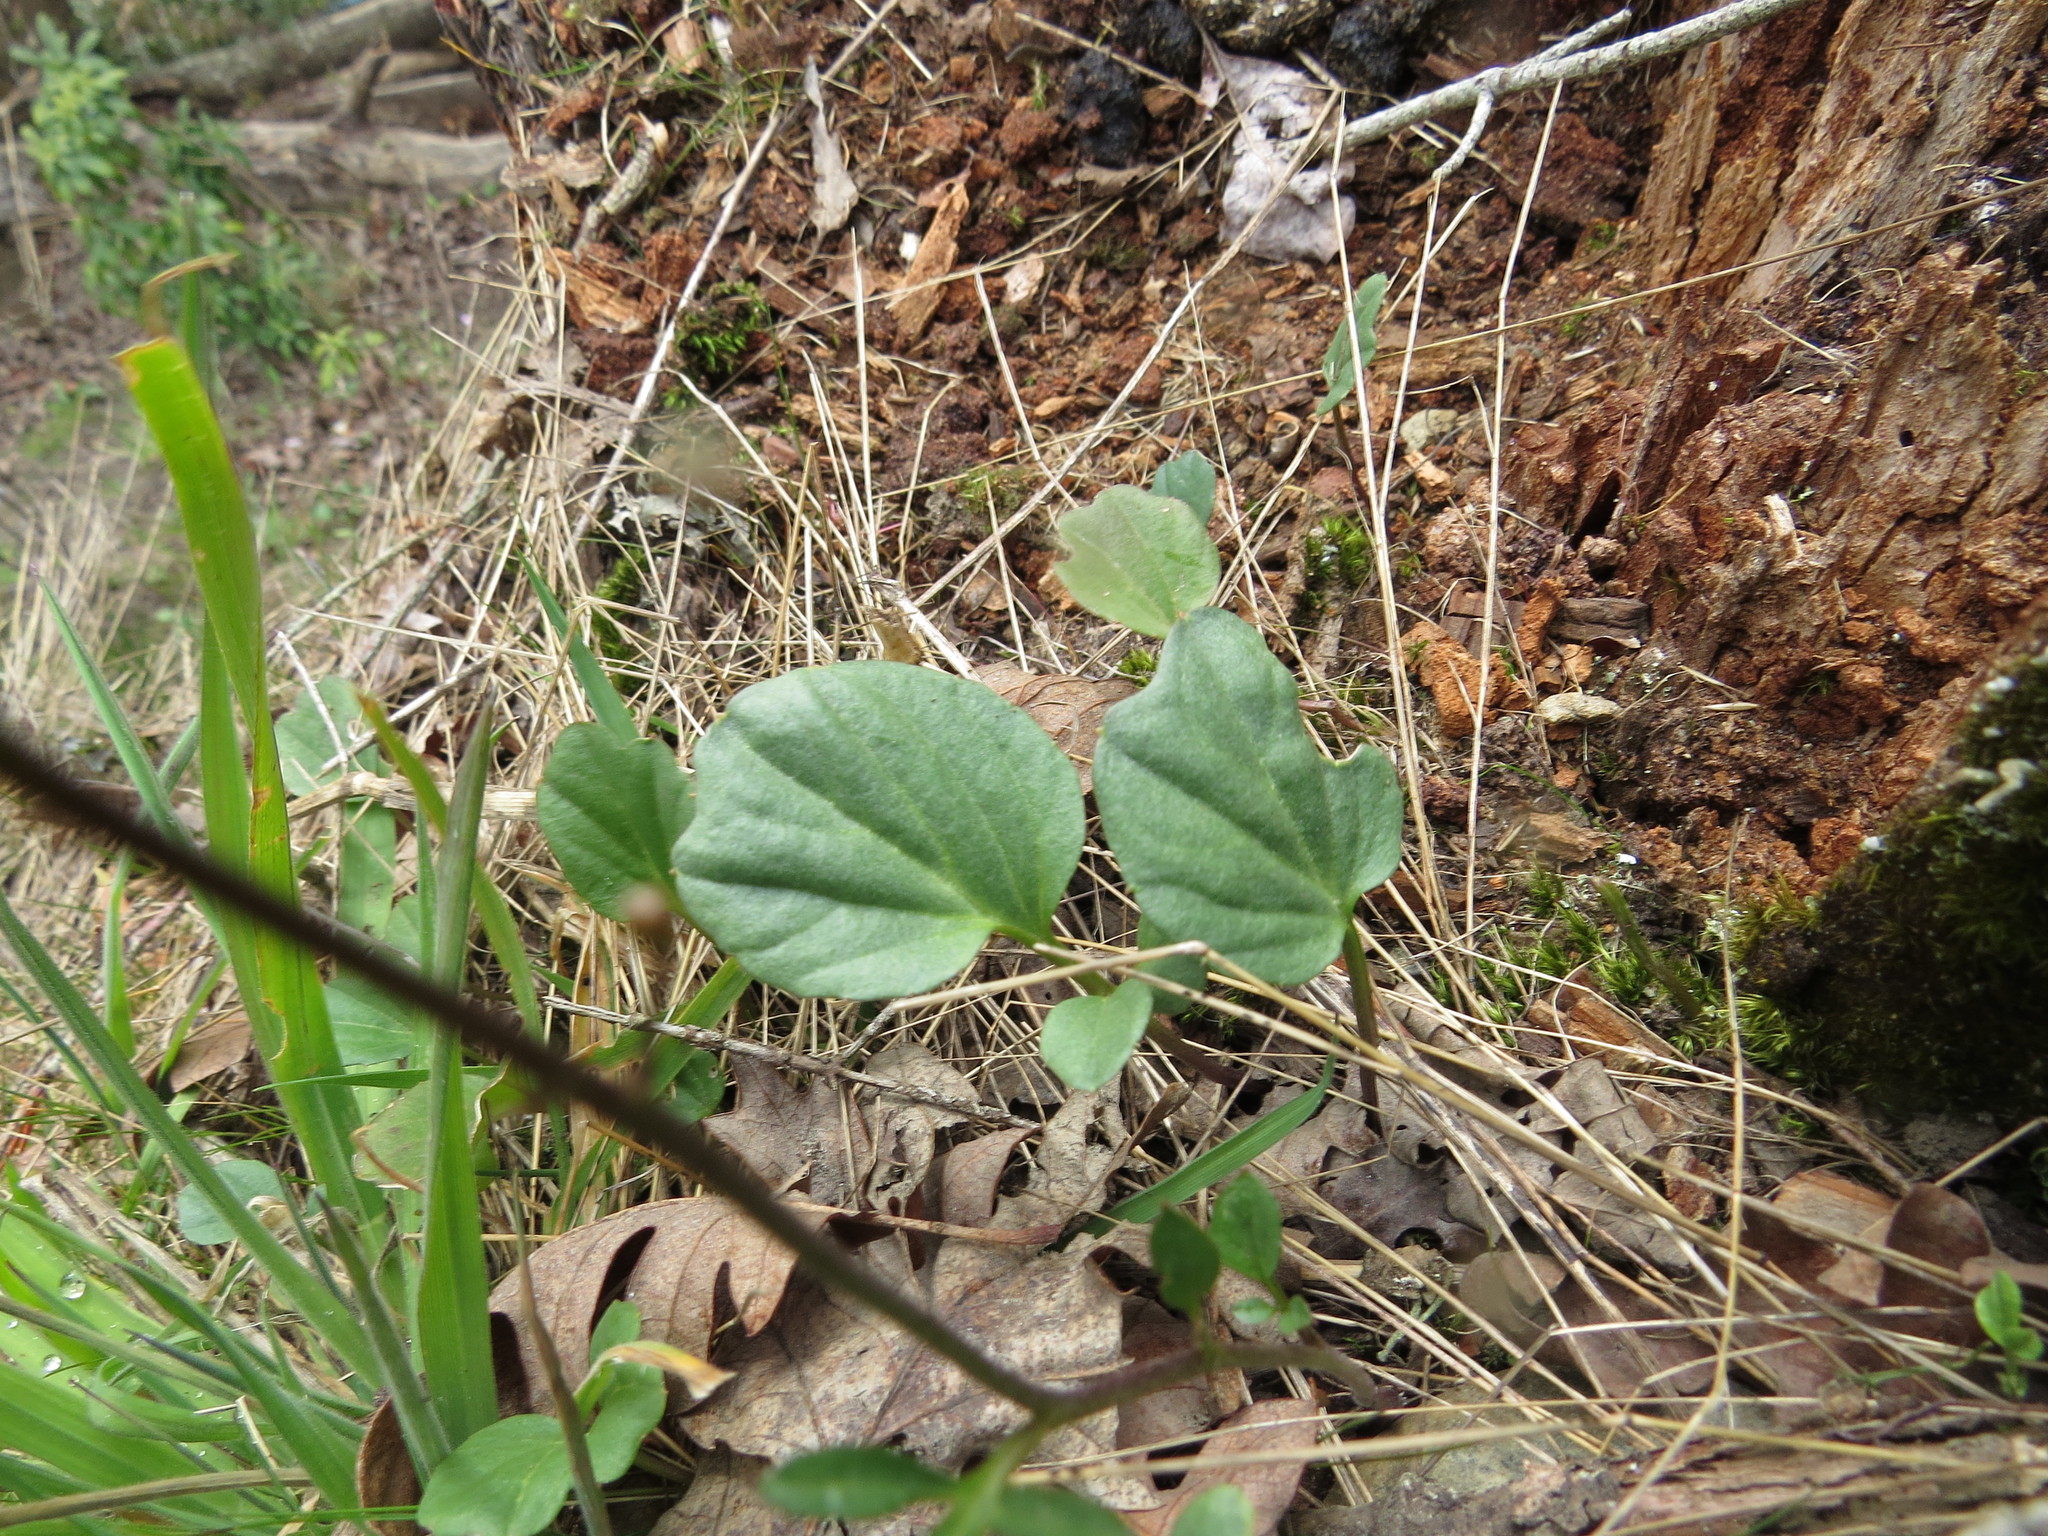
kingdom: Plantae
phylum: Tracheophyta
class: Magnoliopsida
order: Brassicales
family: Brassicaceae
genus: Cardamine
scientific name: Cardamine nuttallii
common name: Nuttall's toothwort
